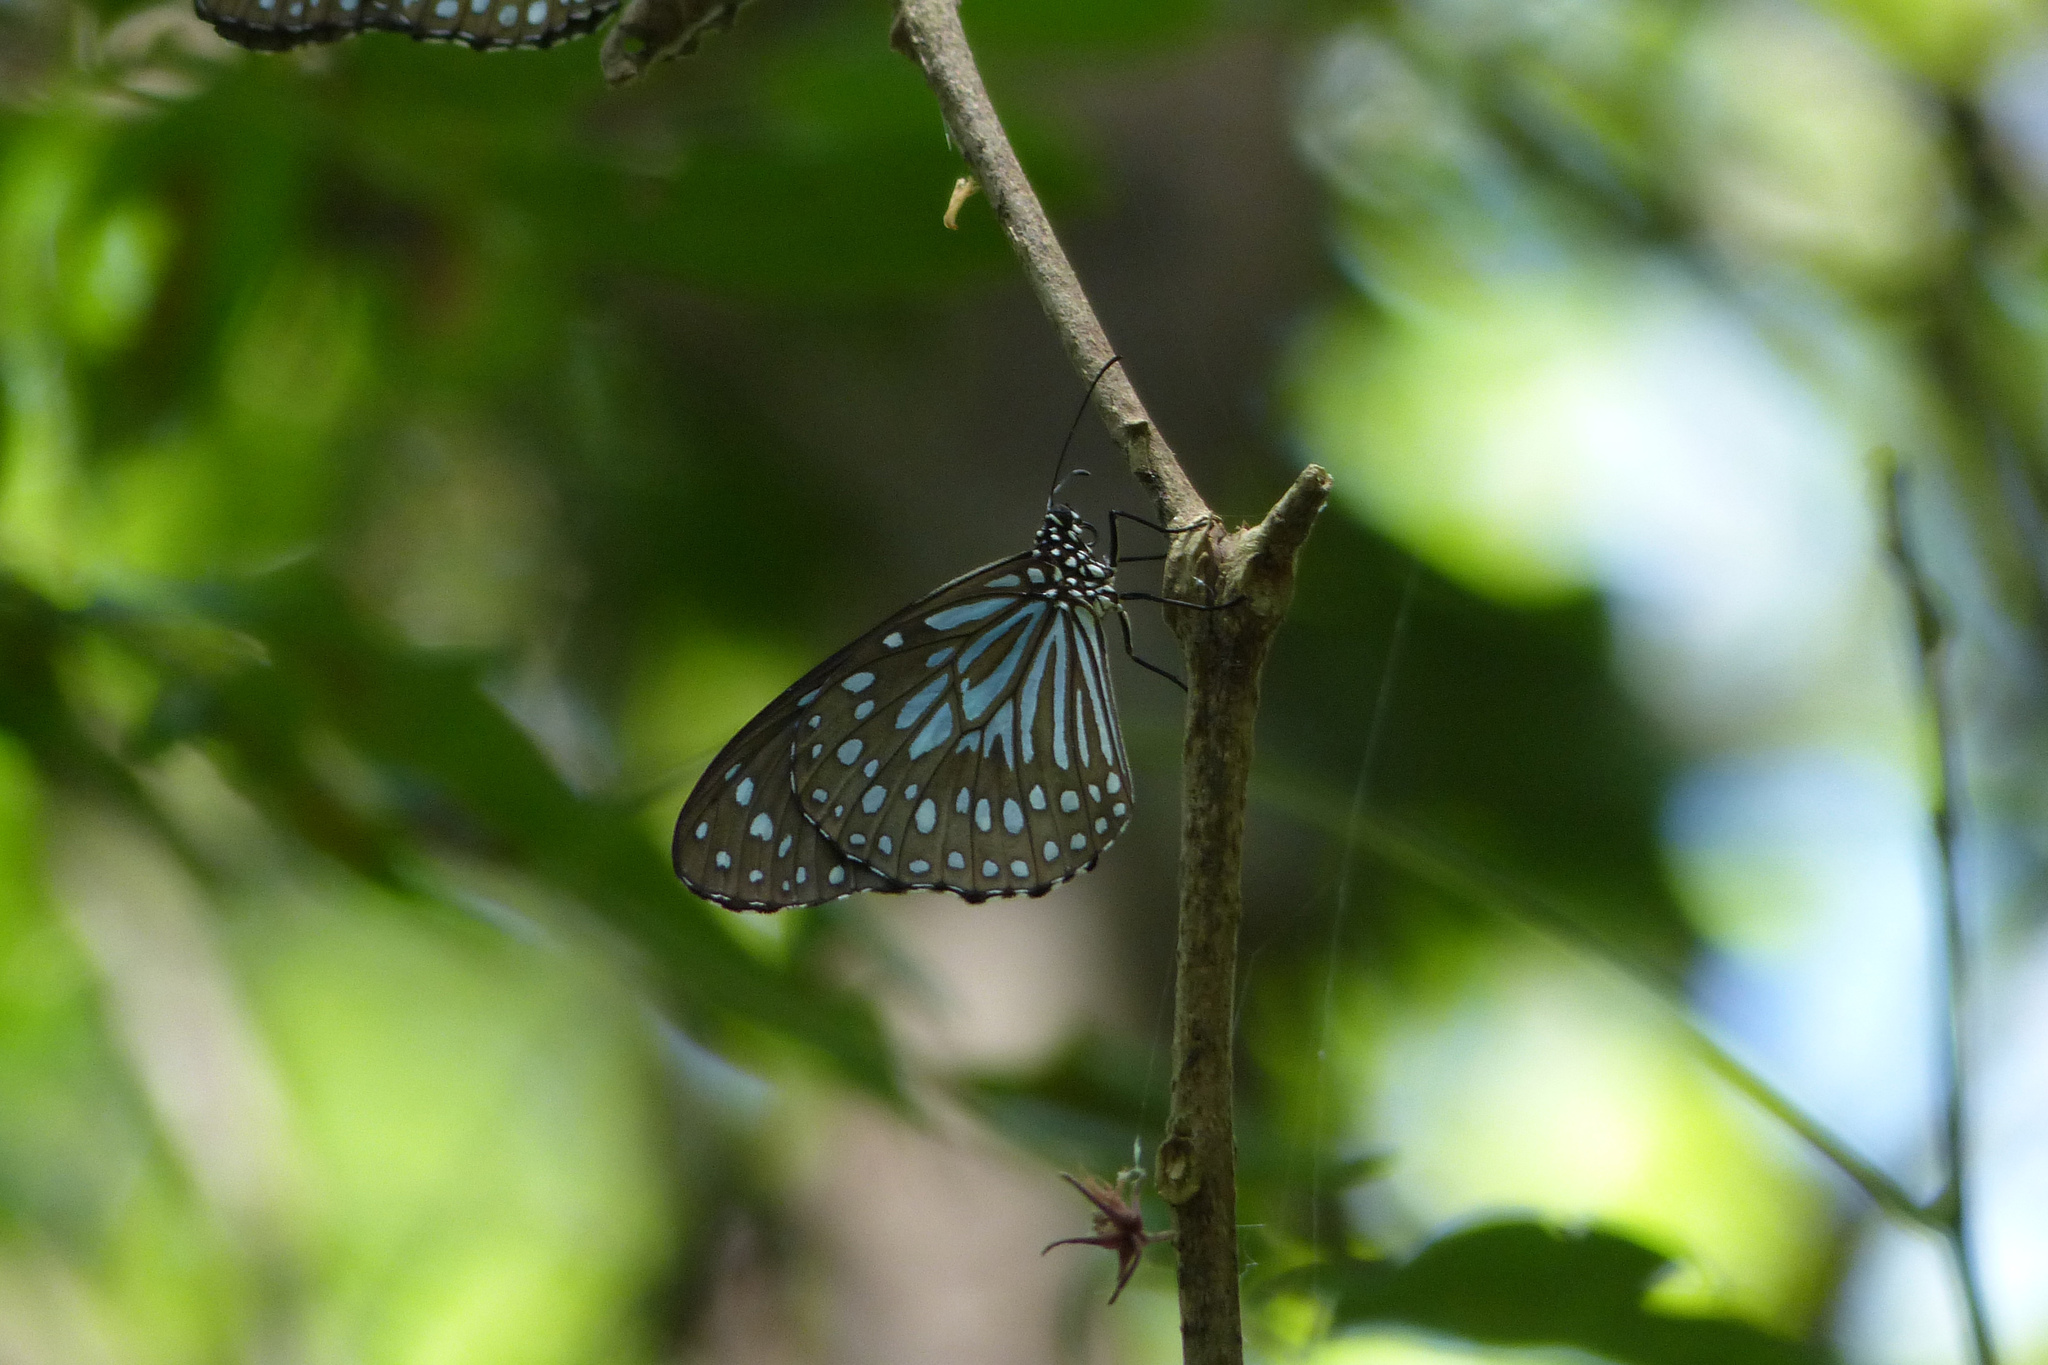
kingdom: Animalia
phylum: Arthropoda
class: Insecta
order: Lepidoptera
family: Nymphalidae
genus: Tirumala
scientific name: Tirumala septentrionis
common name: Dark blue tiger butterfly
